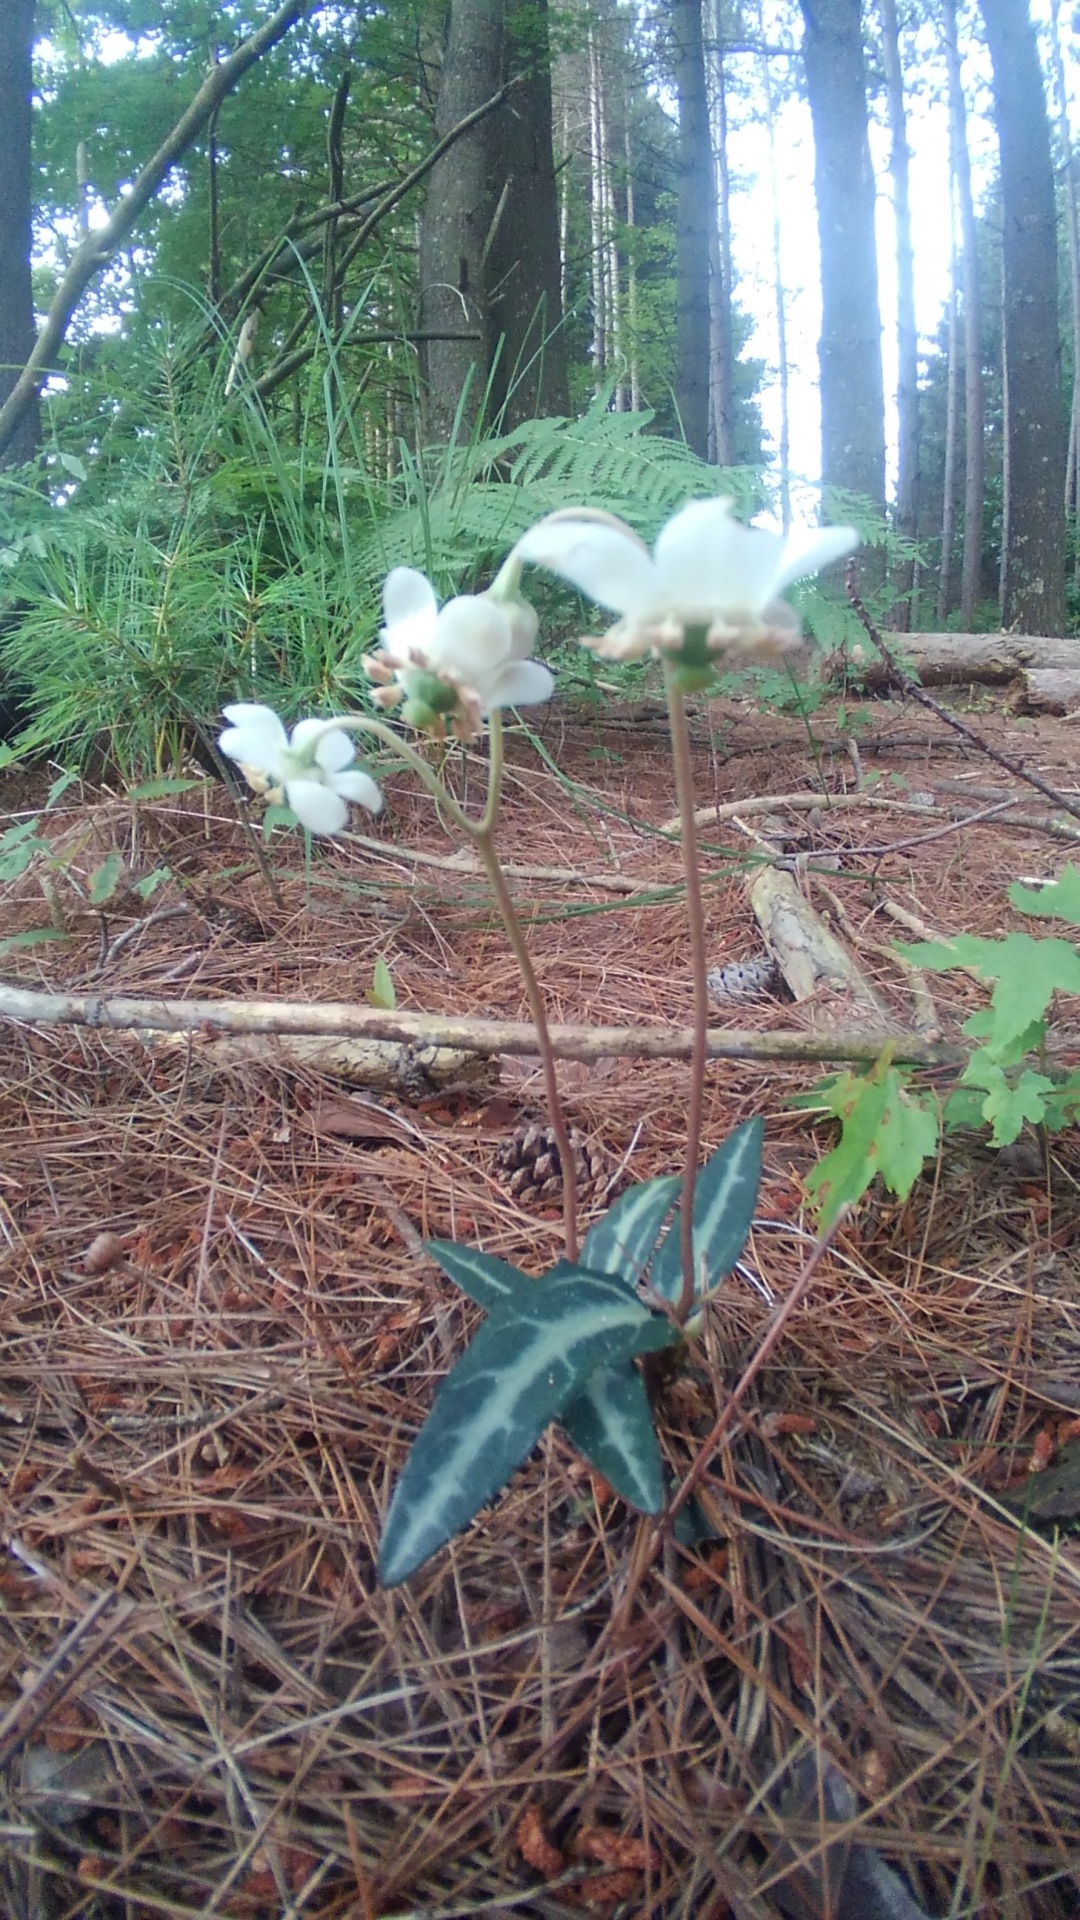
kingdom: Plantae
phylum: Tracheophyta
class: Magnoliopsida
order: Ericales
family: Ericaceae
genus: Chimaphila
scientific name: Chimaphila maculata
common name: Spotted pipsissewa
